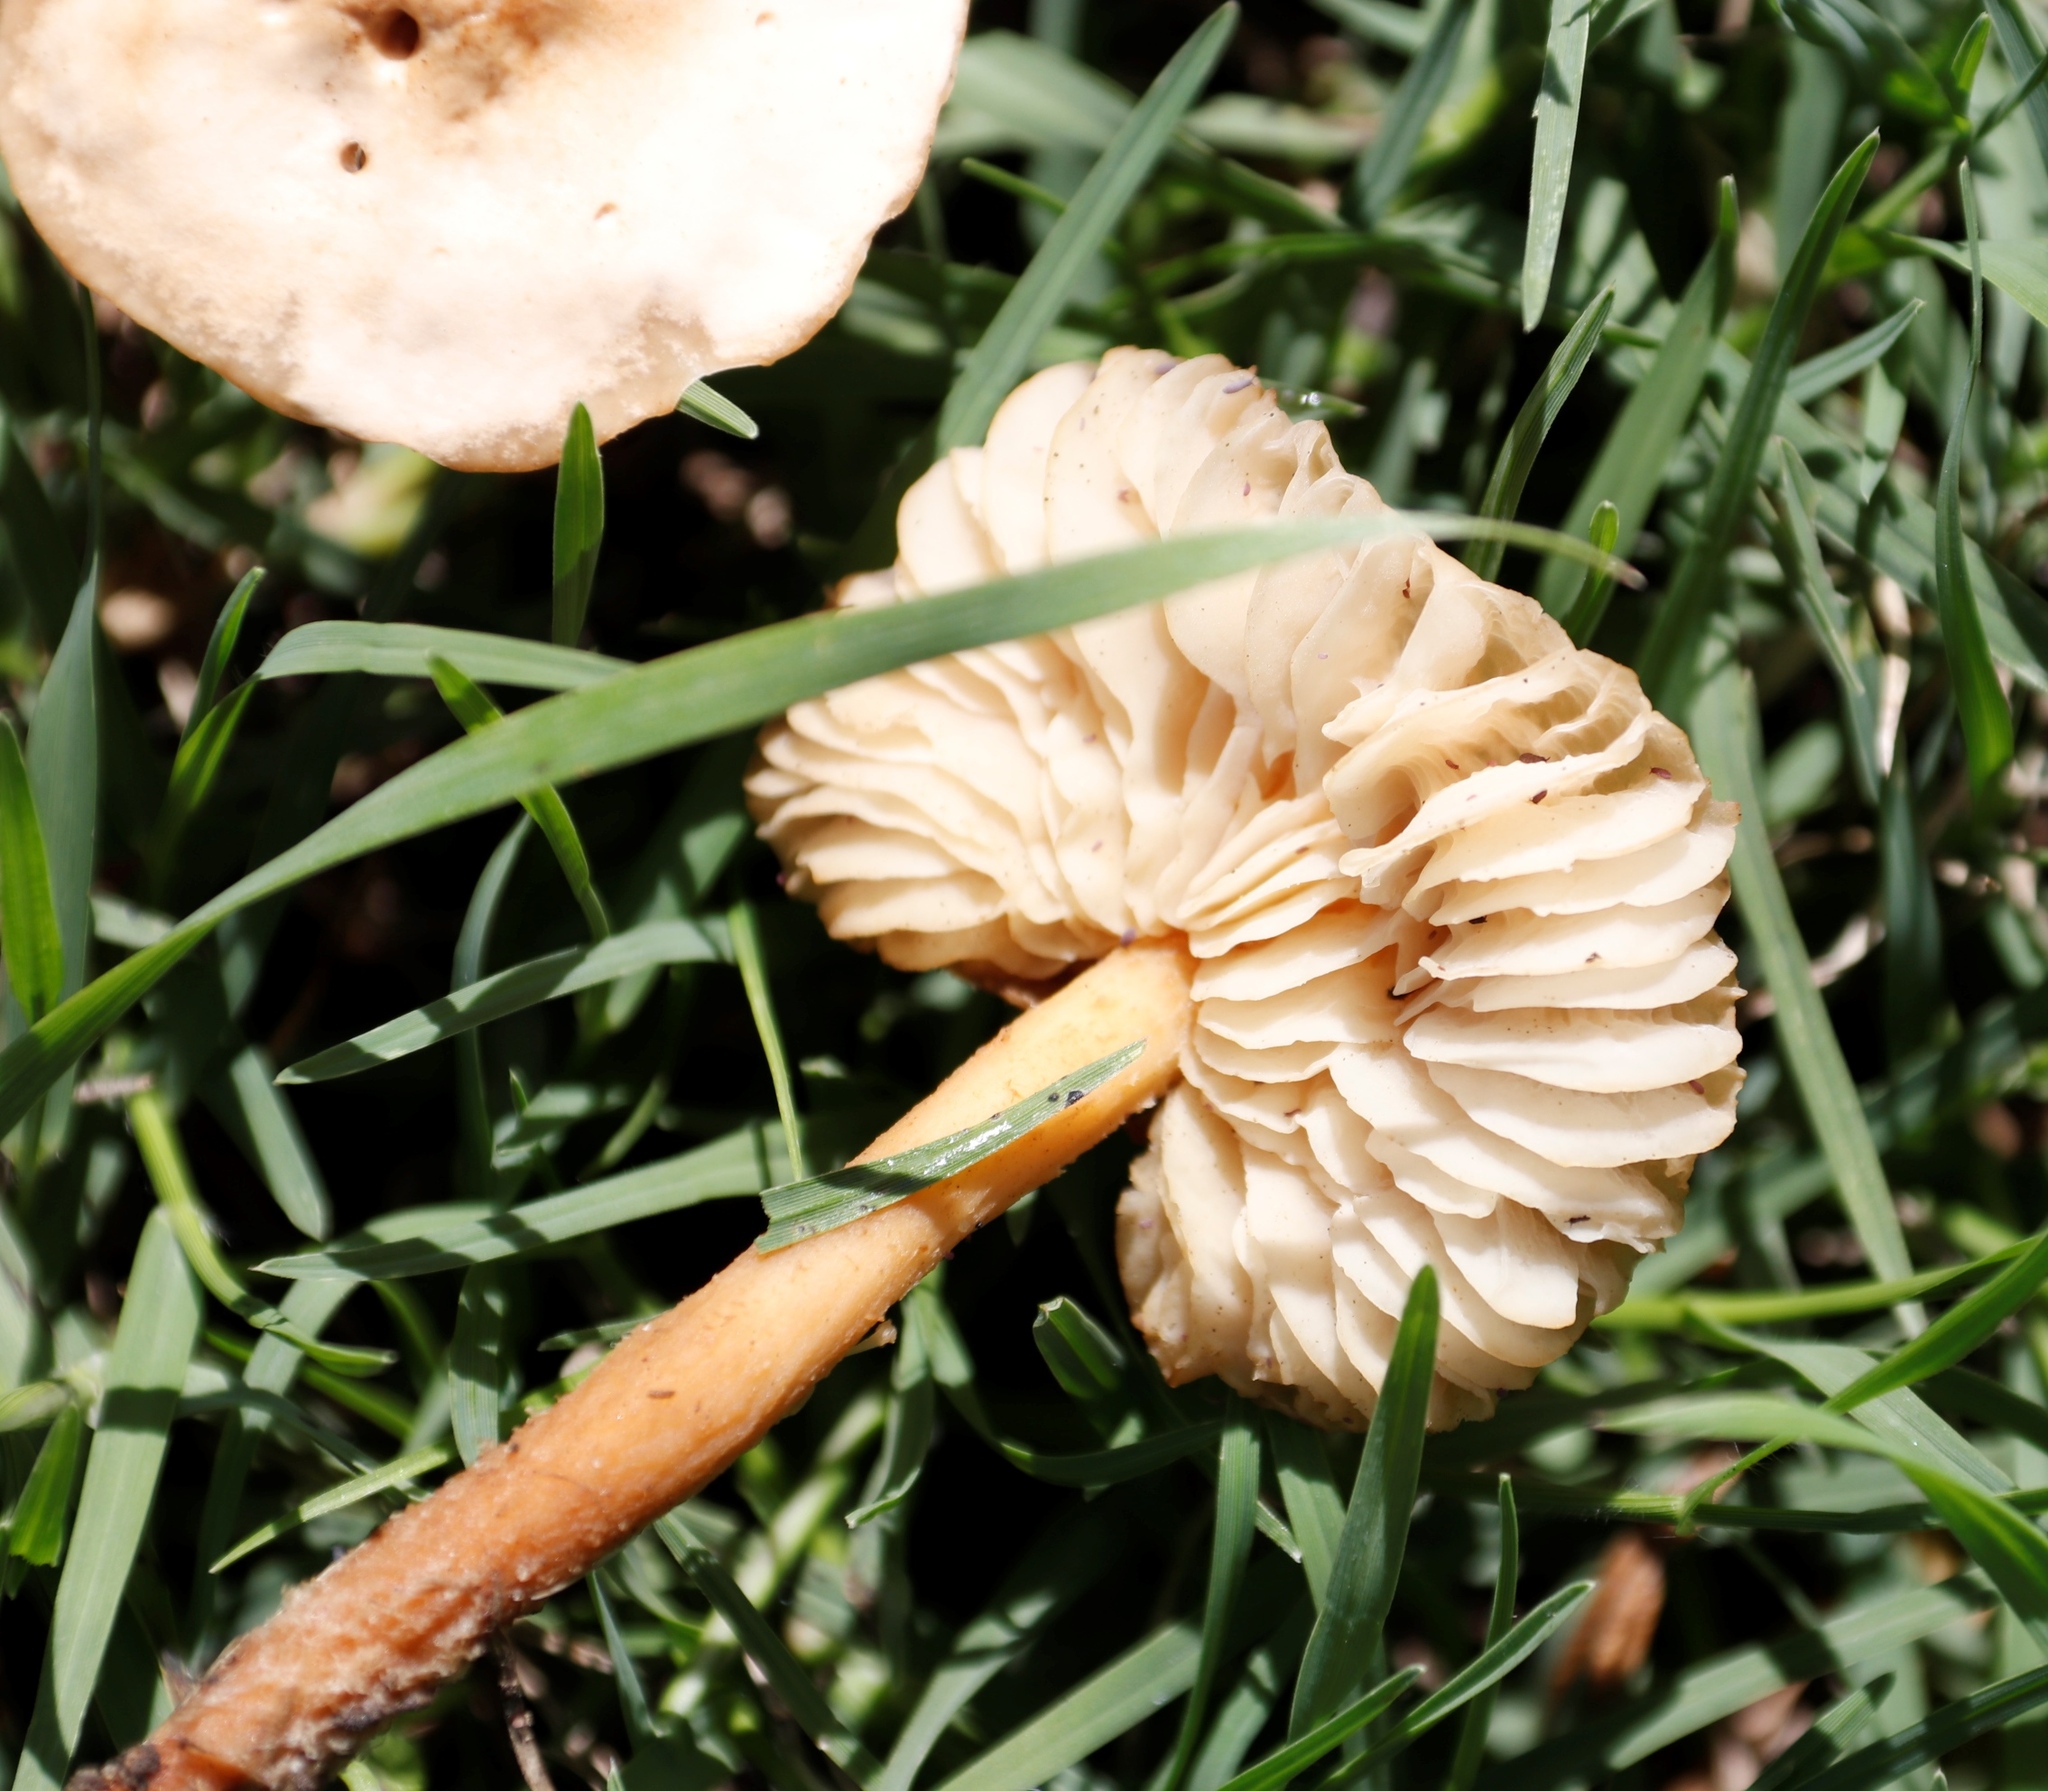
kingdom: Fungi
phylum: Basidiomycota
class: Agaricomycetes
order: Agaricales
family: Marasmiaceae
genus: Marasmius
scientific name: Marasmius oreades
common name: Fairy ring champignon
